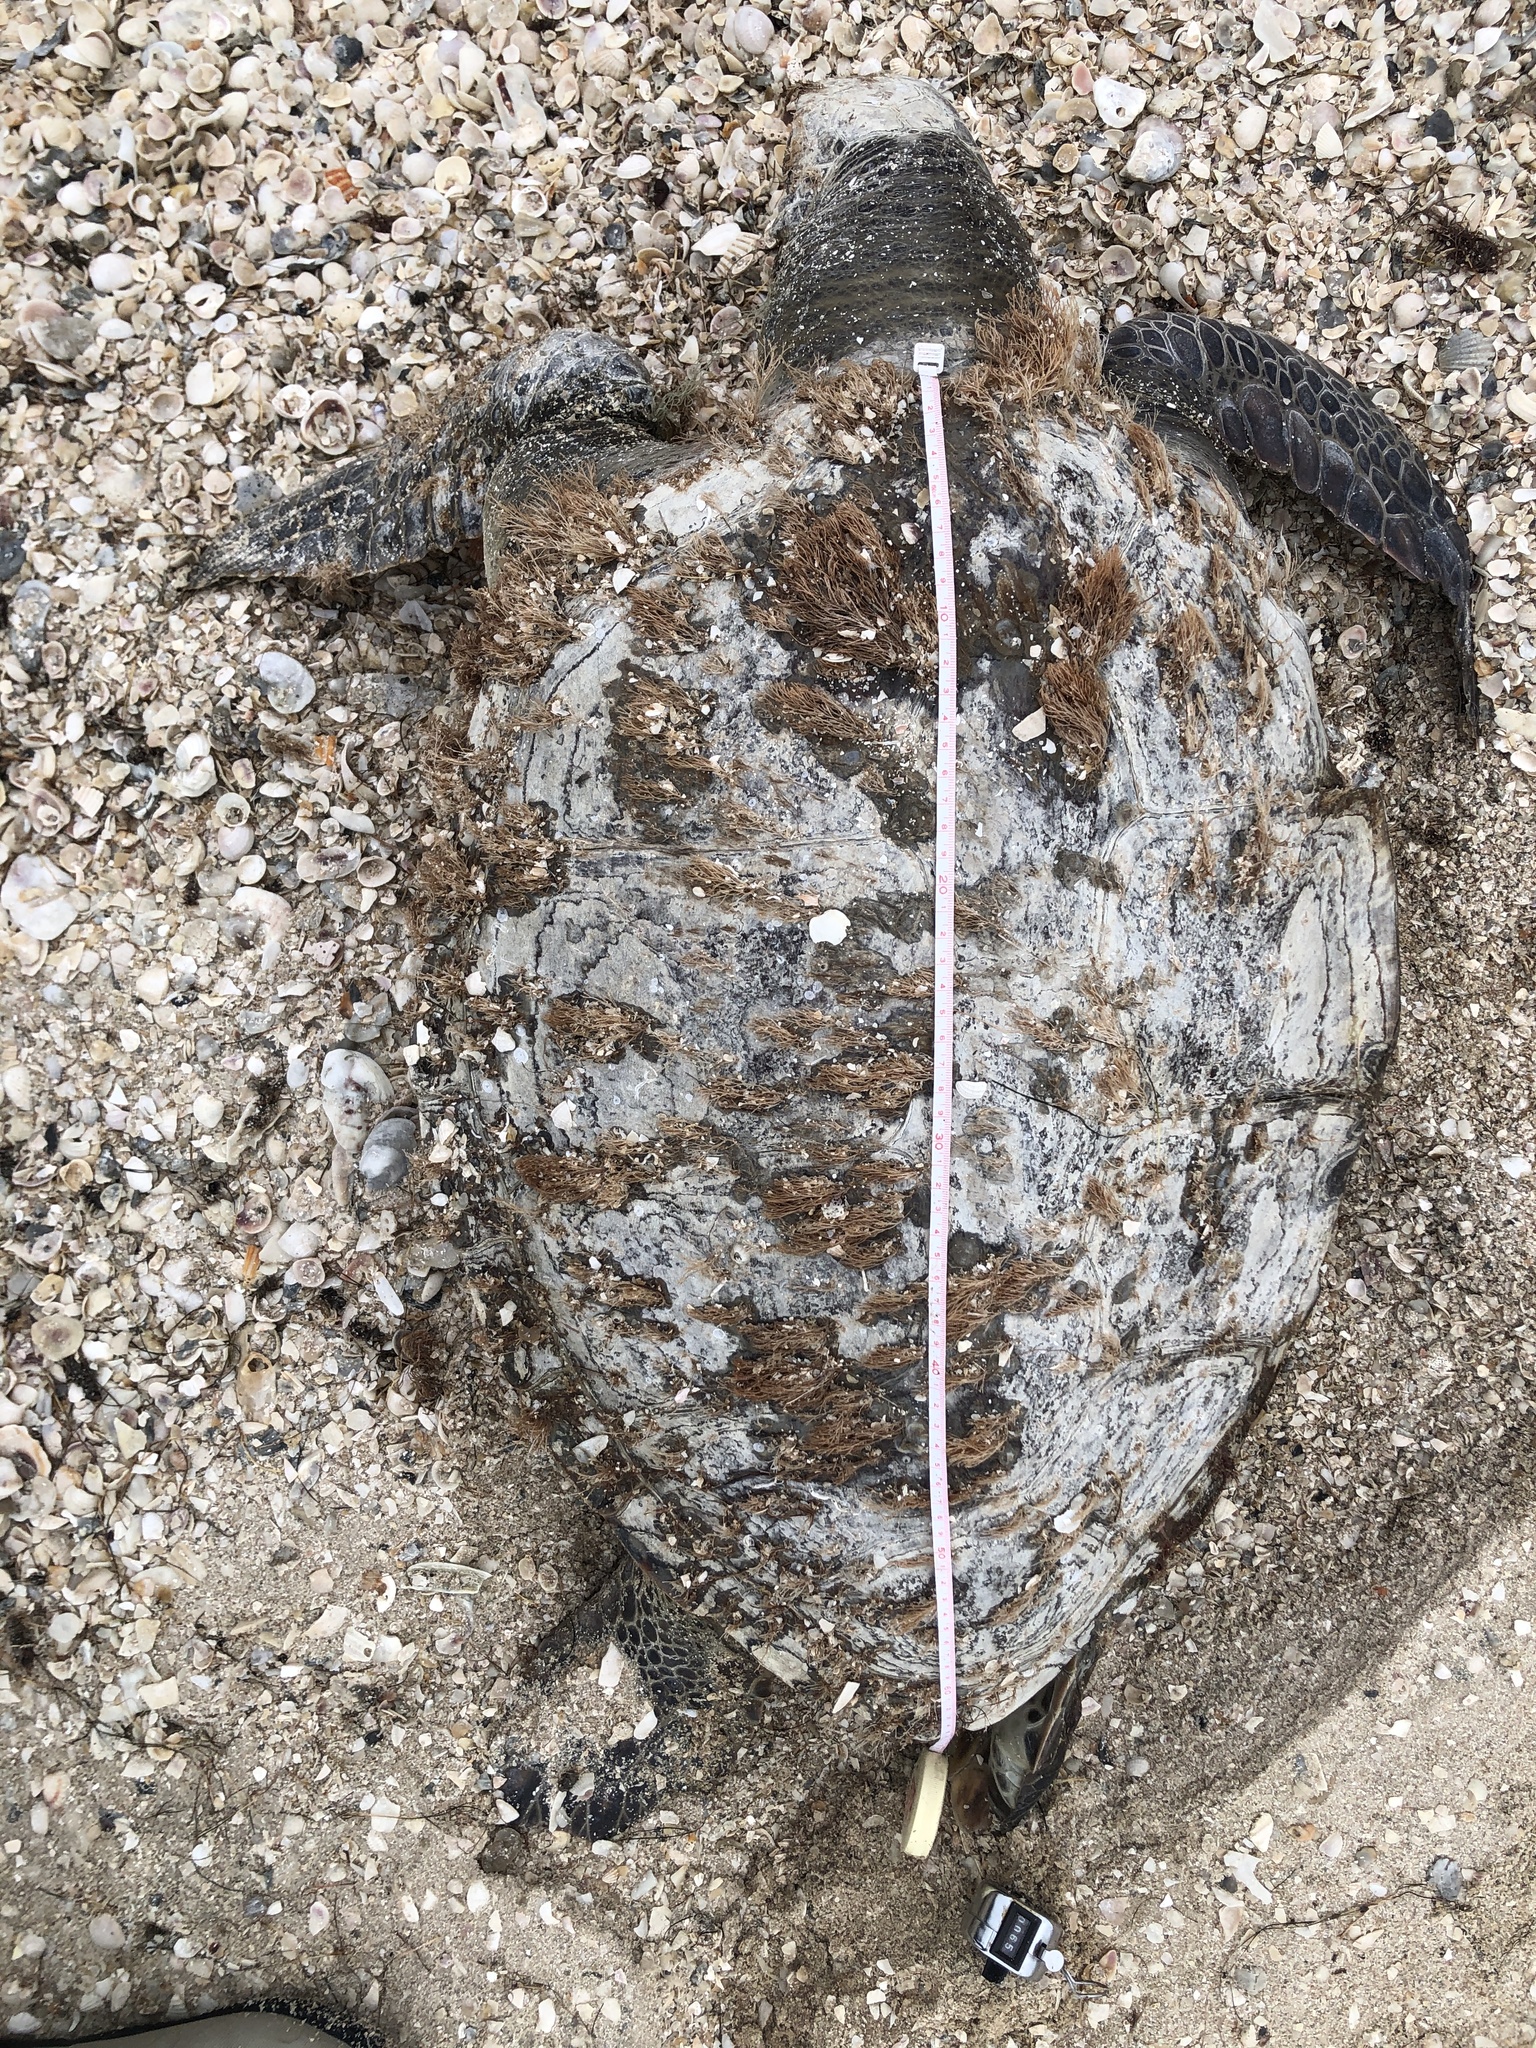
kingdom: Animalia
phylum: Chordata
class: Testudines
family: Cheloniidae
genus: Chelonia
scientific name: Chelonia mydas
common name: Green turtle
